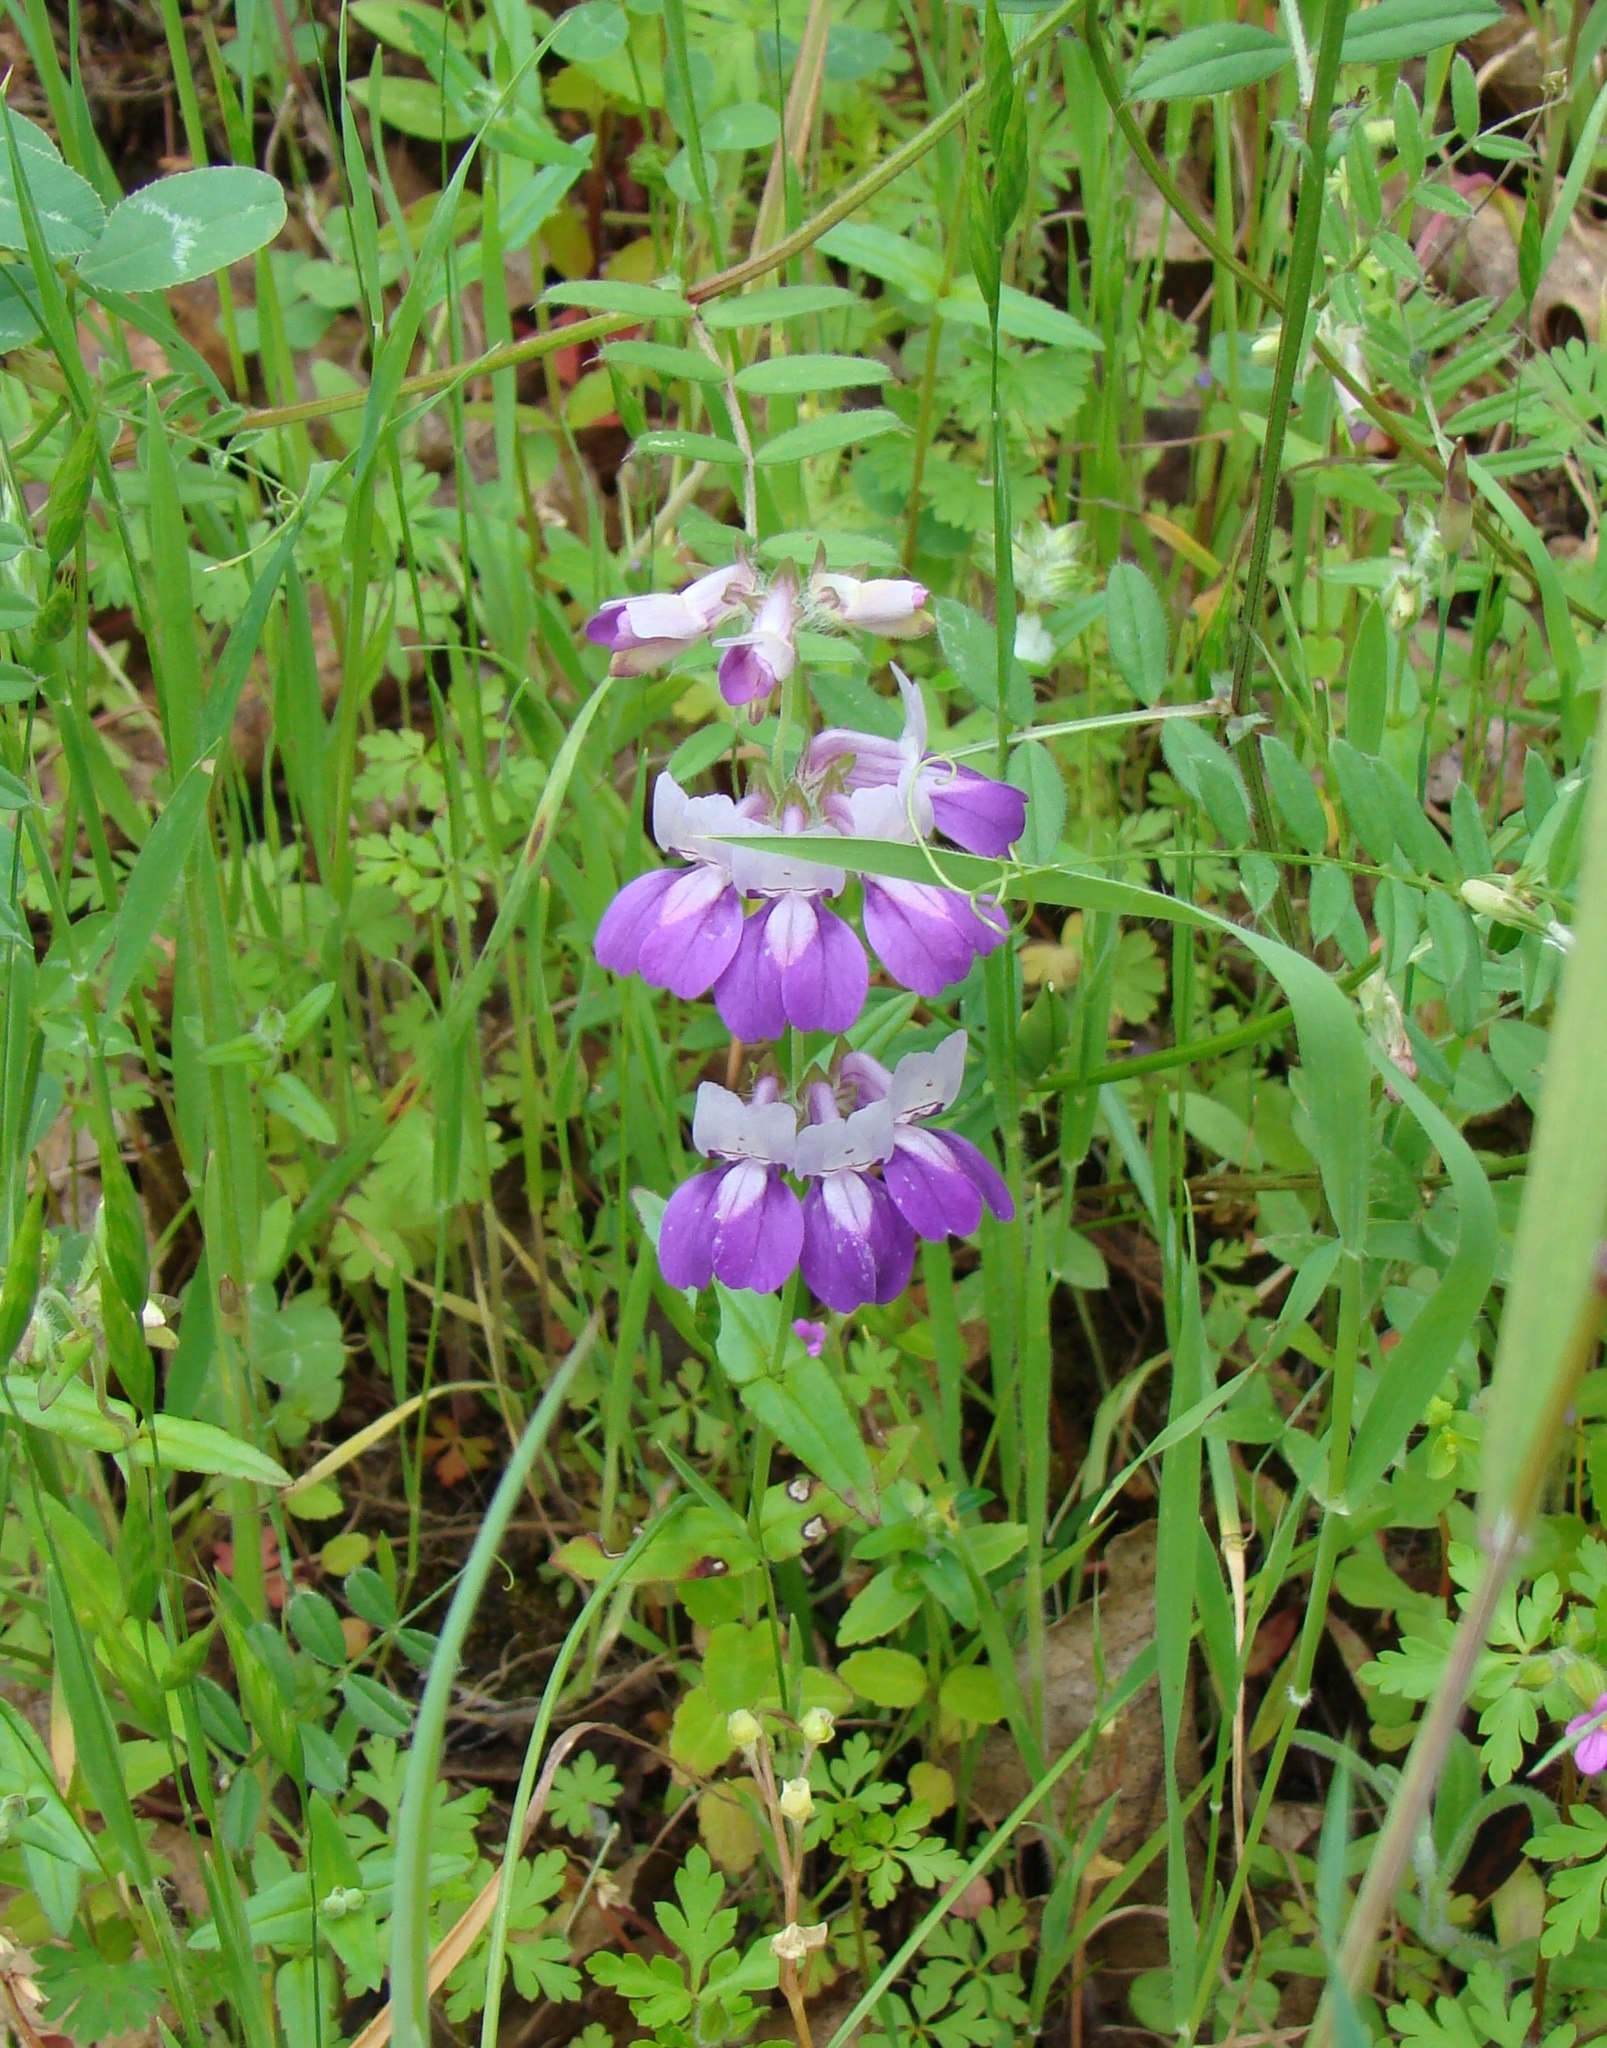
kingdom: Plantae
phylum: Tracheophyta
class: Magnoliopsida
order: Lamiales
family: Plantaginaceae
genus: Collinsia
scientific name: Collinsia heterophylla
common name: Chinese-houses
